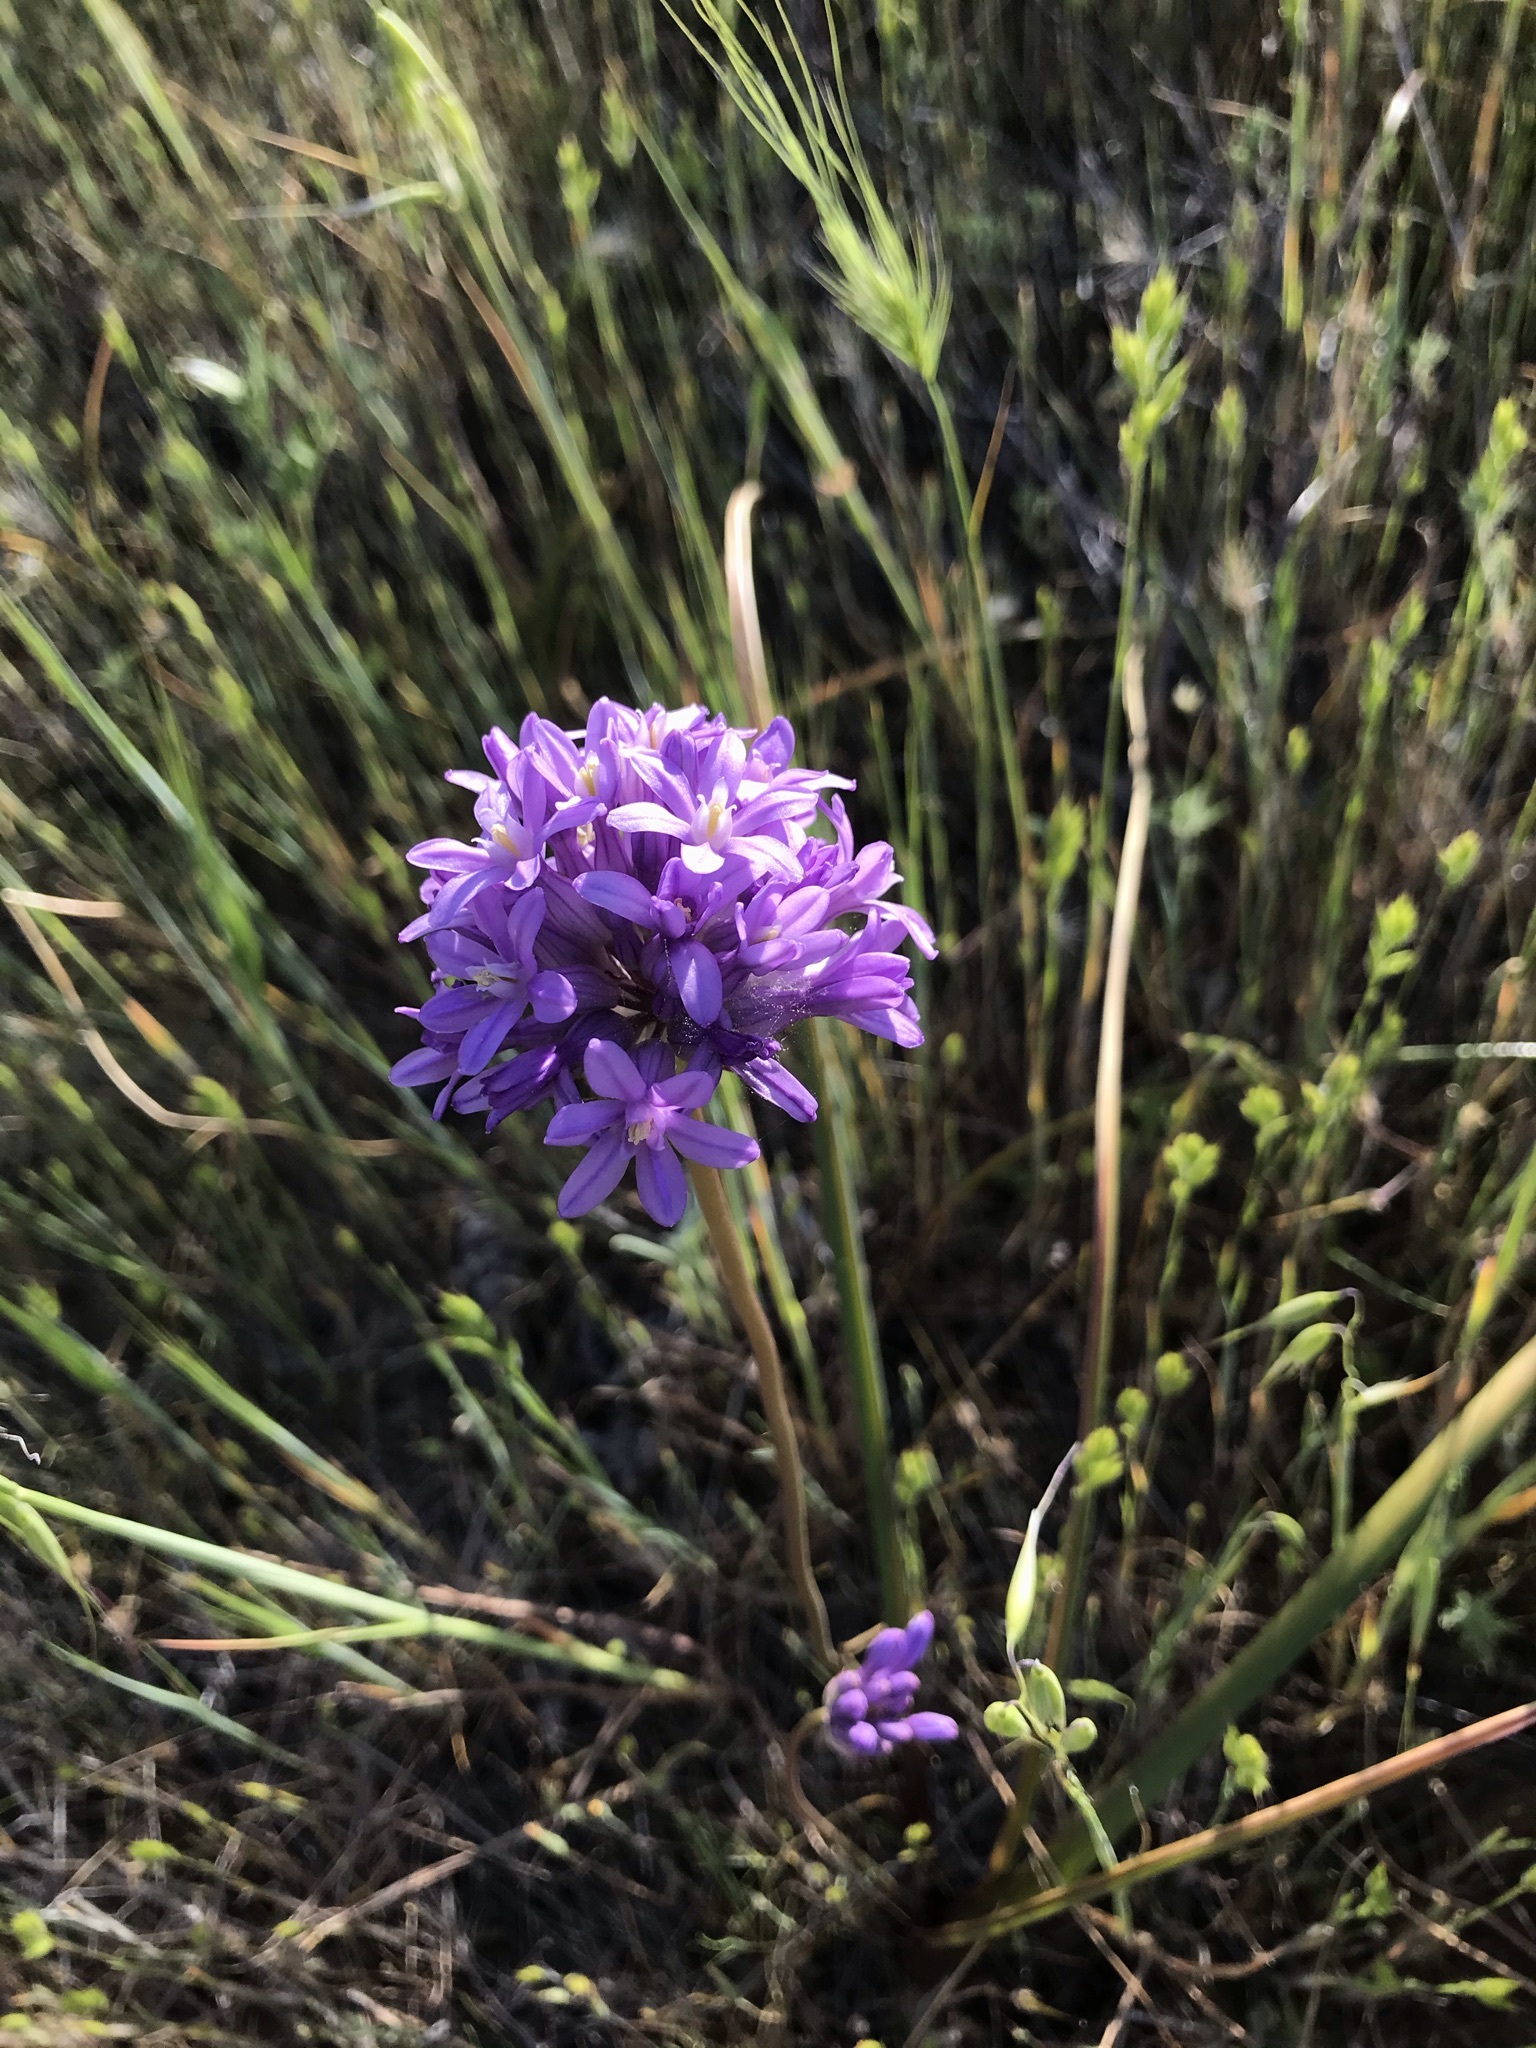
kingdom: Plantae
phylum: Tracheophyta
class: Liliopsida
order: Asparagales
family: Asparagaceae
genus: Dichelostemma
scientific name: Dichelostemma multiflorum
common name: Round-tooth ookow
